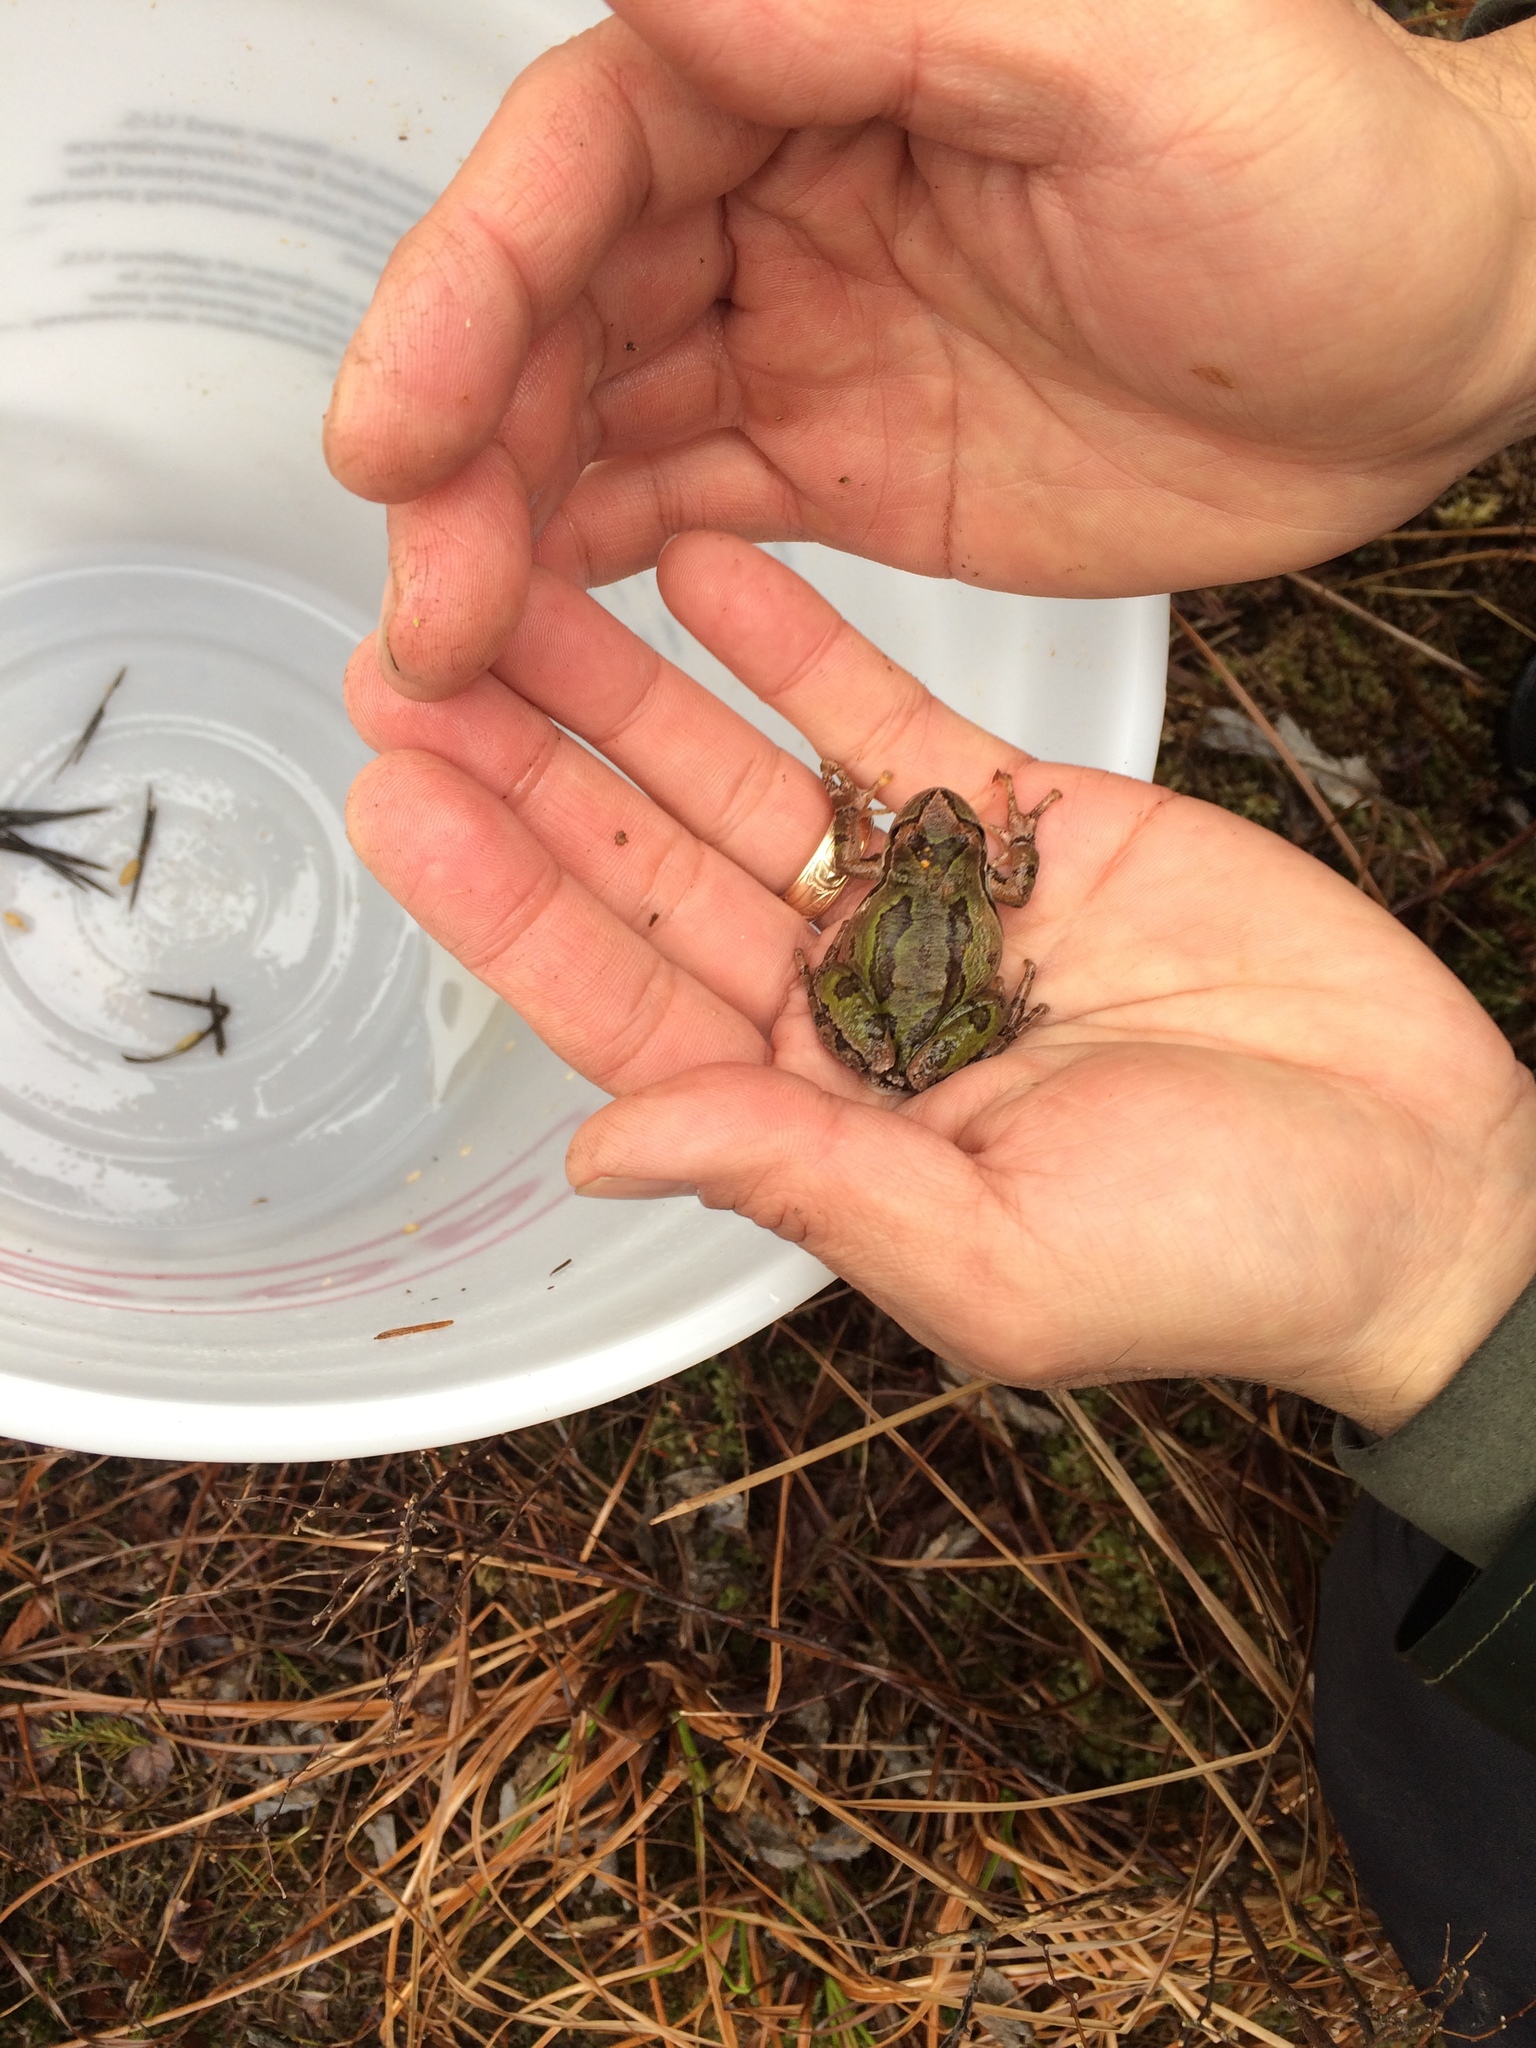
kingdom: Animalia
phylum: Chordata
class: Amphibia
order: Anura
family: Hylidae
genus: Pseudacris
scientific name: Pseudacris regilla
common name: Pacific chorus frog
